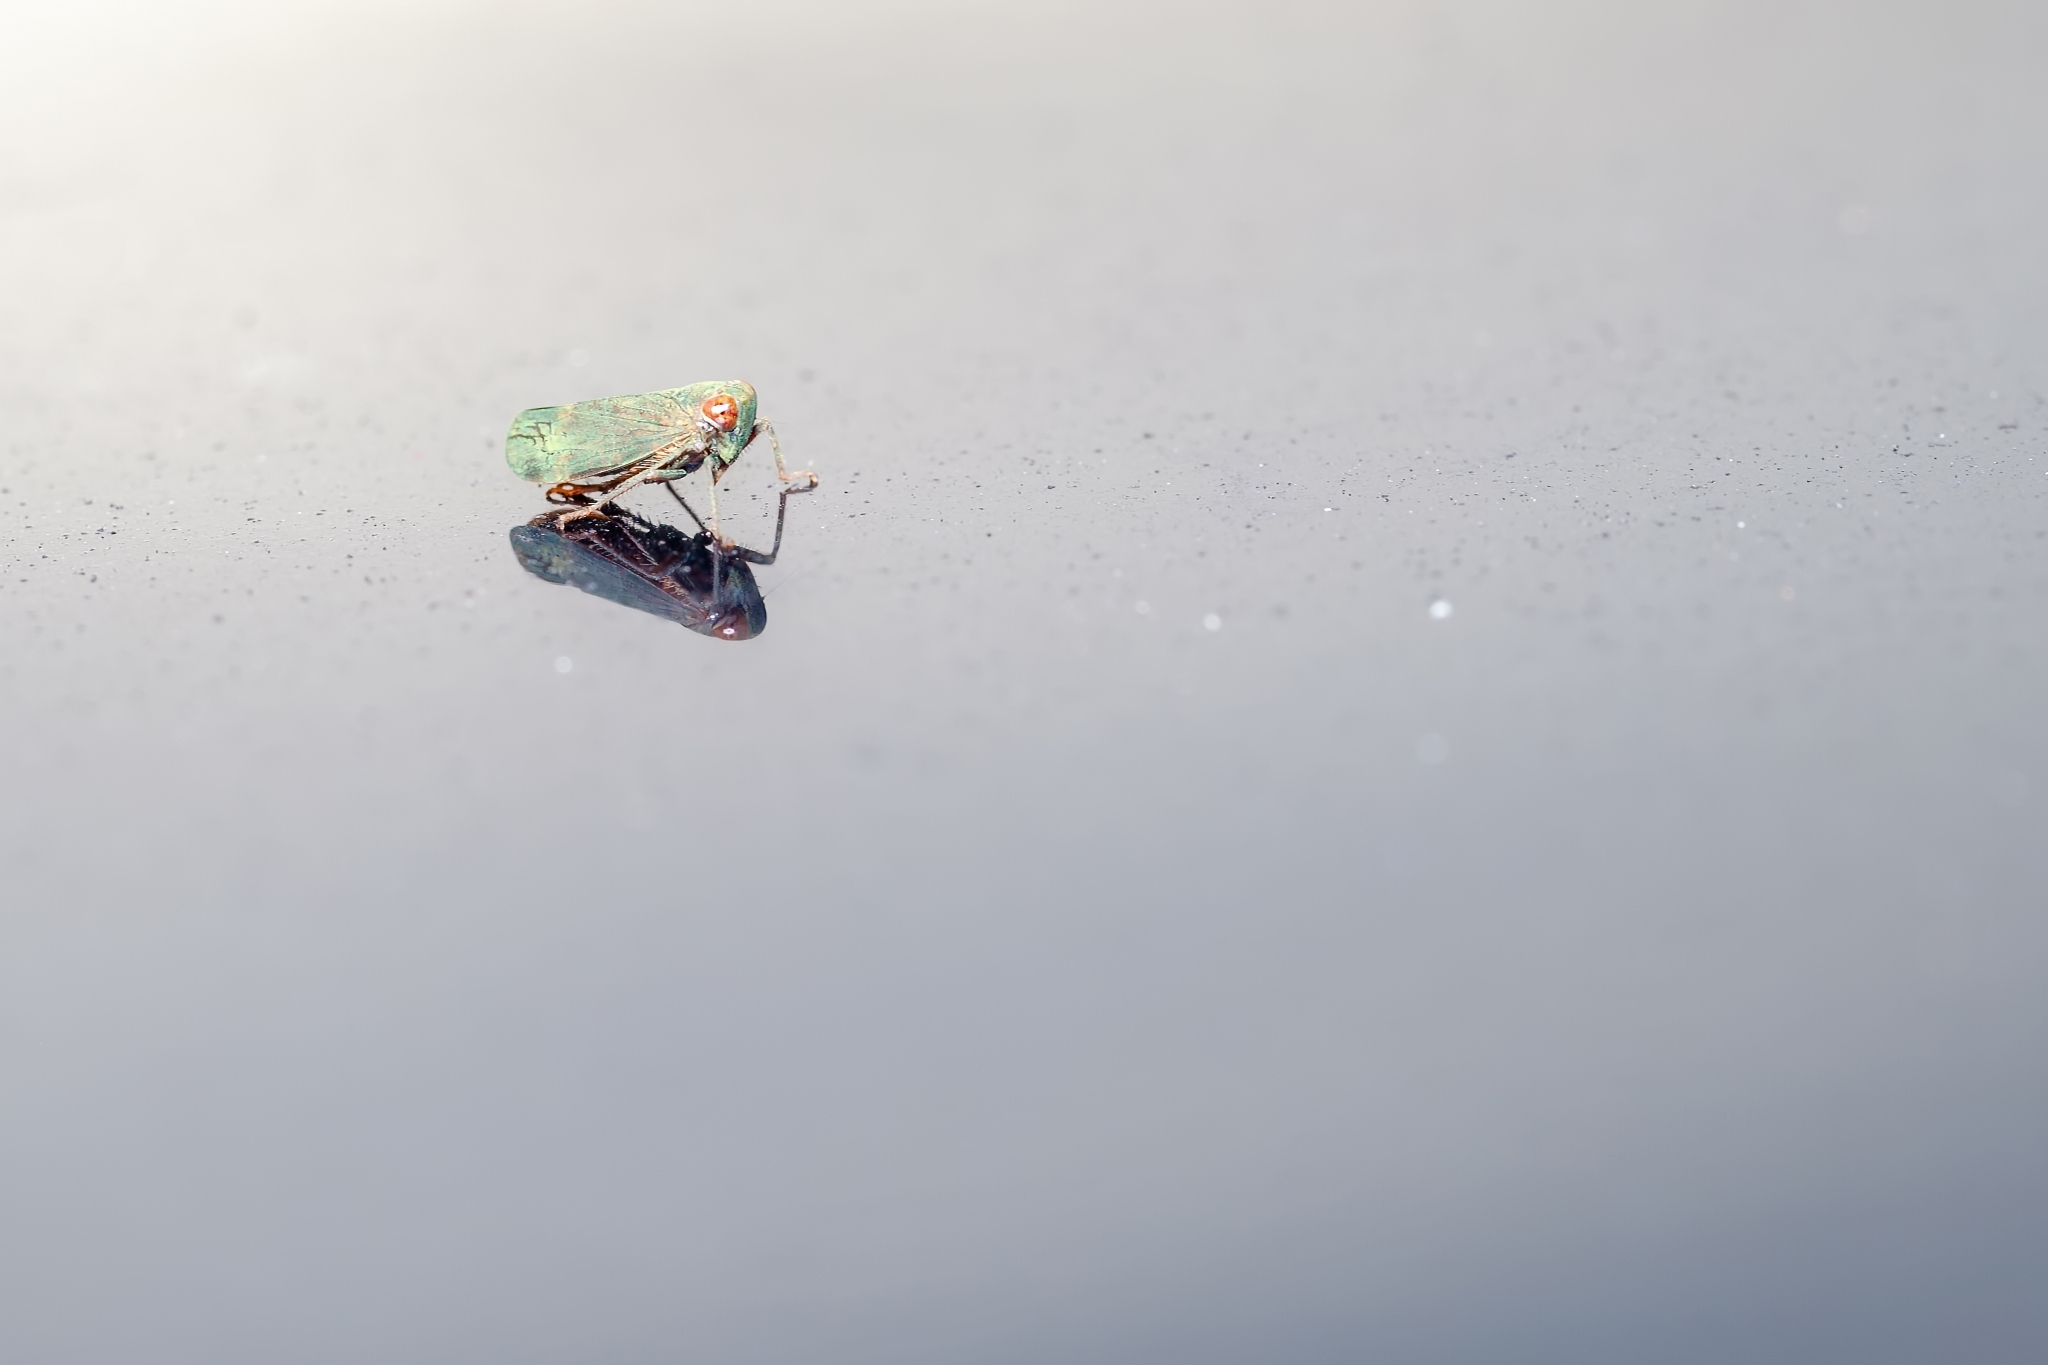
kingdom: Animalia
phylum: Arthropoda
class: Insecta
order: Hemiptera
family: Cicadellidae
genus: Jikradia
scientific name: Jikradia olitoria
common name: Coppery leafhopper
